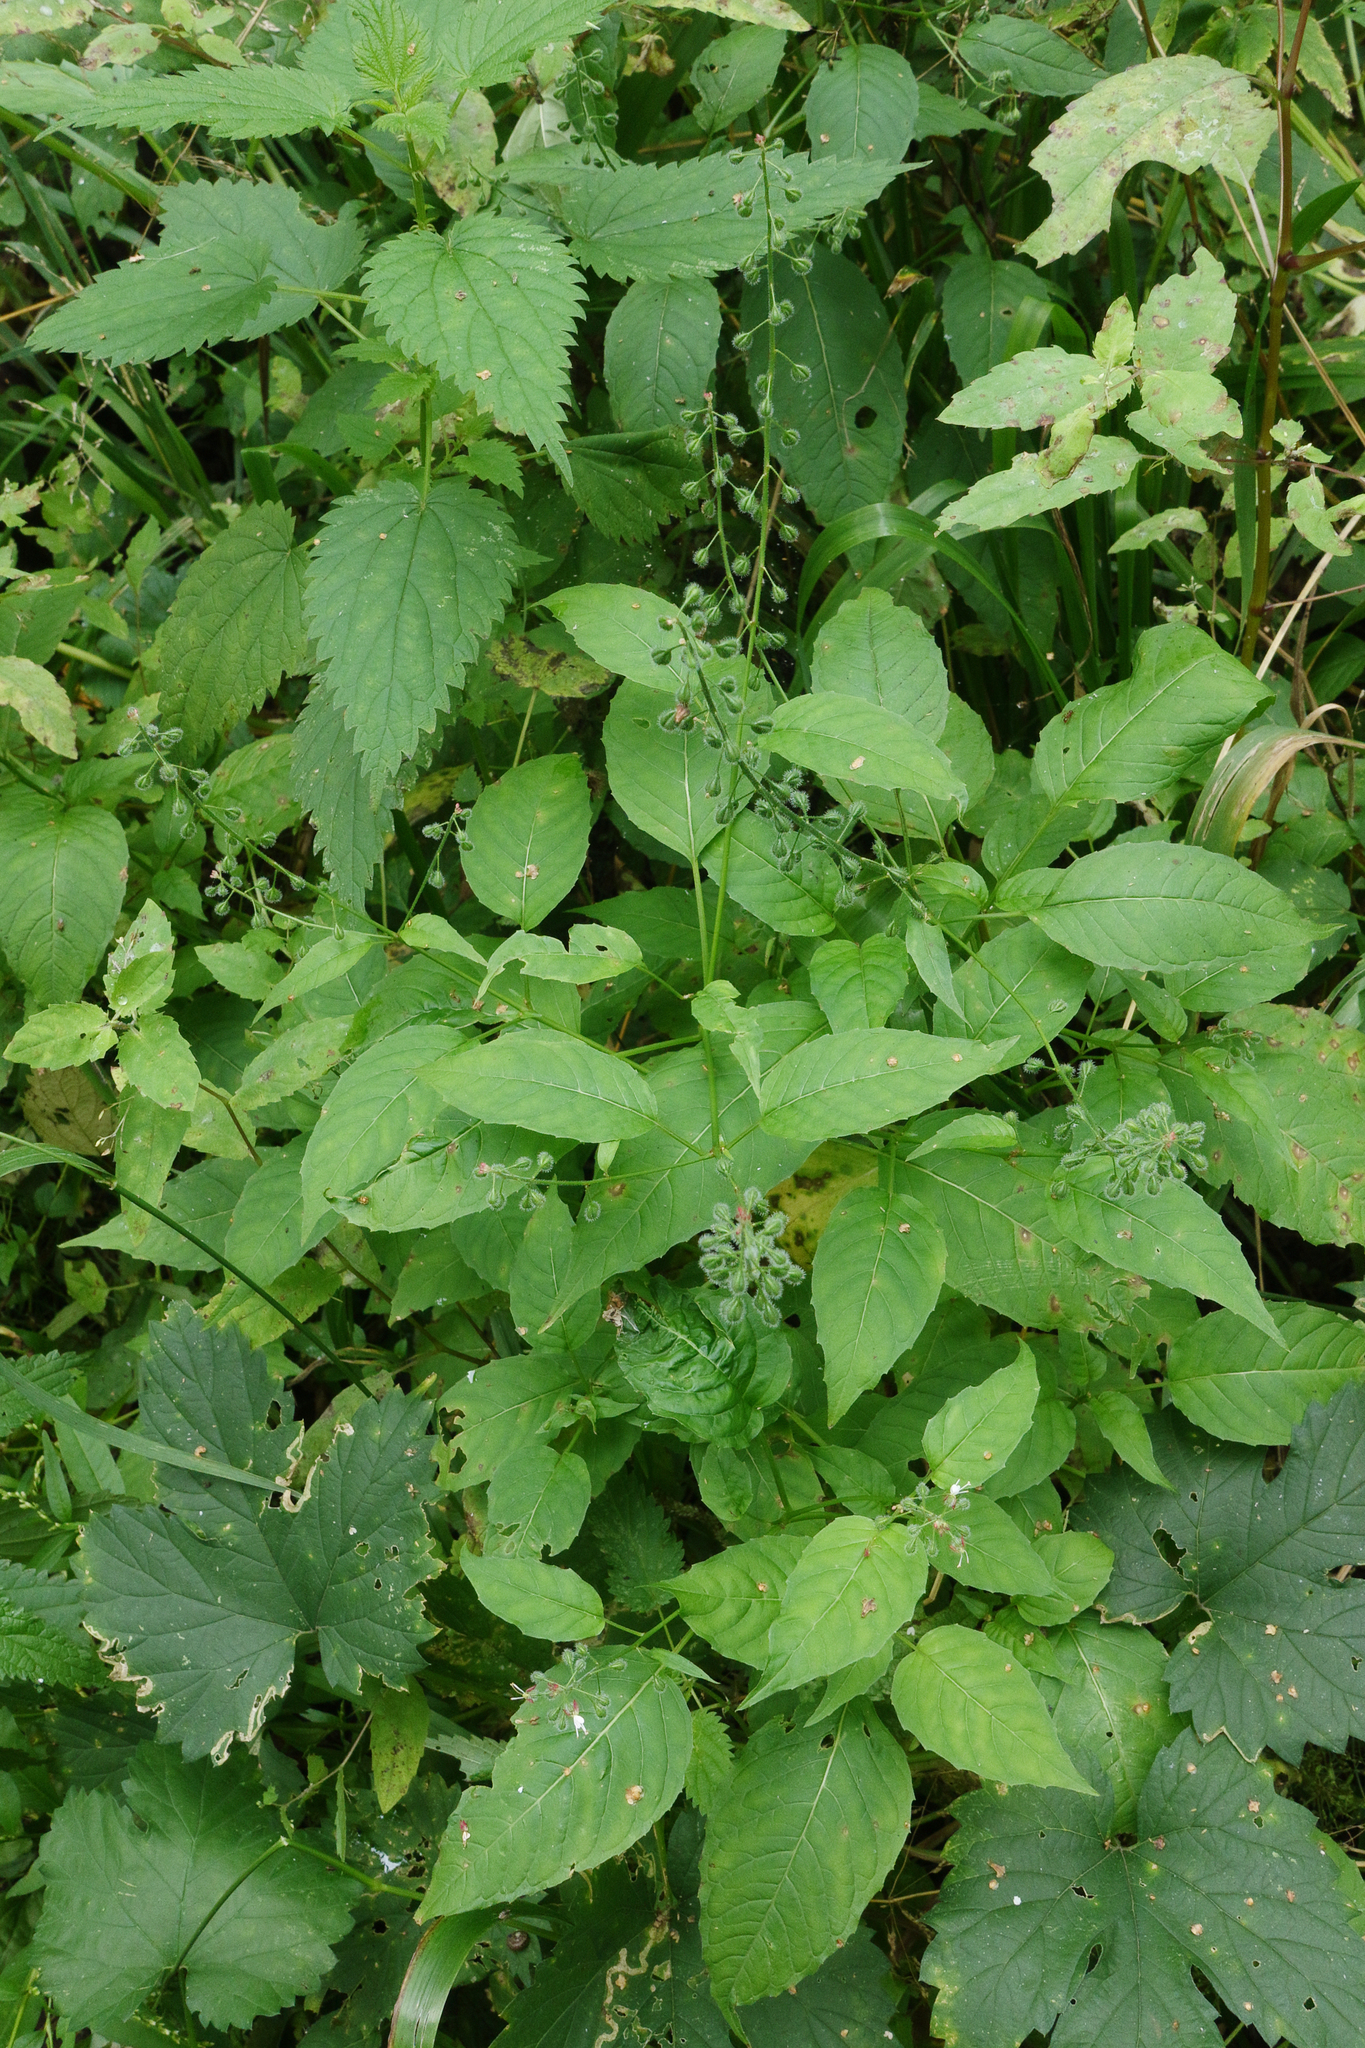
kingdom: Plantae
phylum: Tracheophyta
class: Magnoliopsida
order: Myrtales
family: Onagraceae
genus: Circaea
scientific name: Circaea lutetiana
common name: Enchanter's-nightshade
